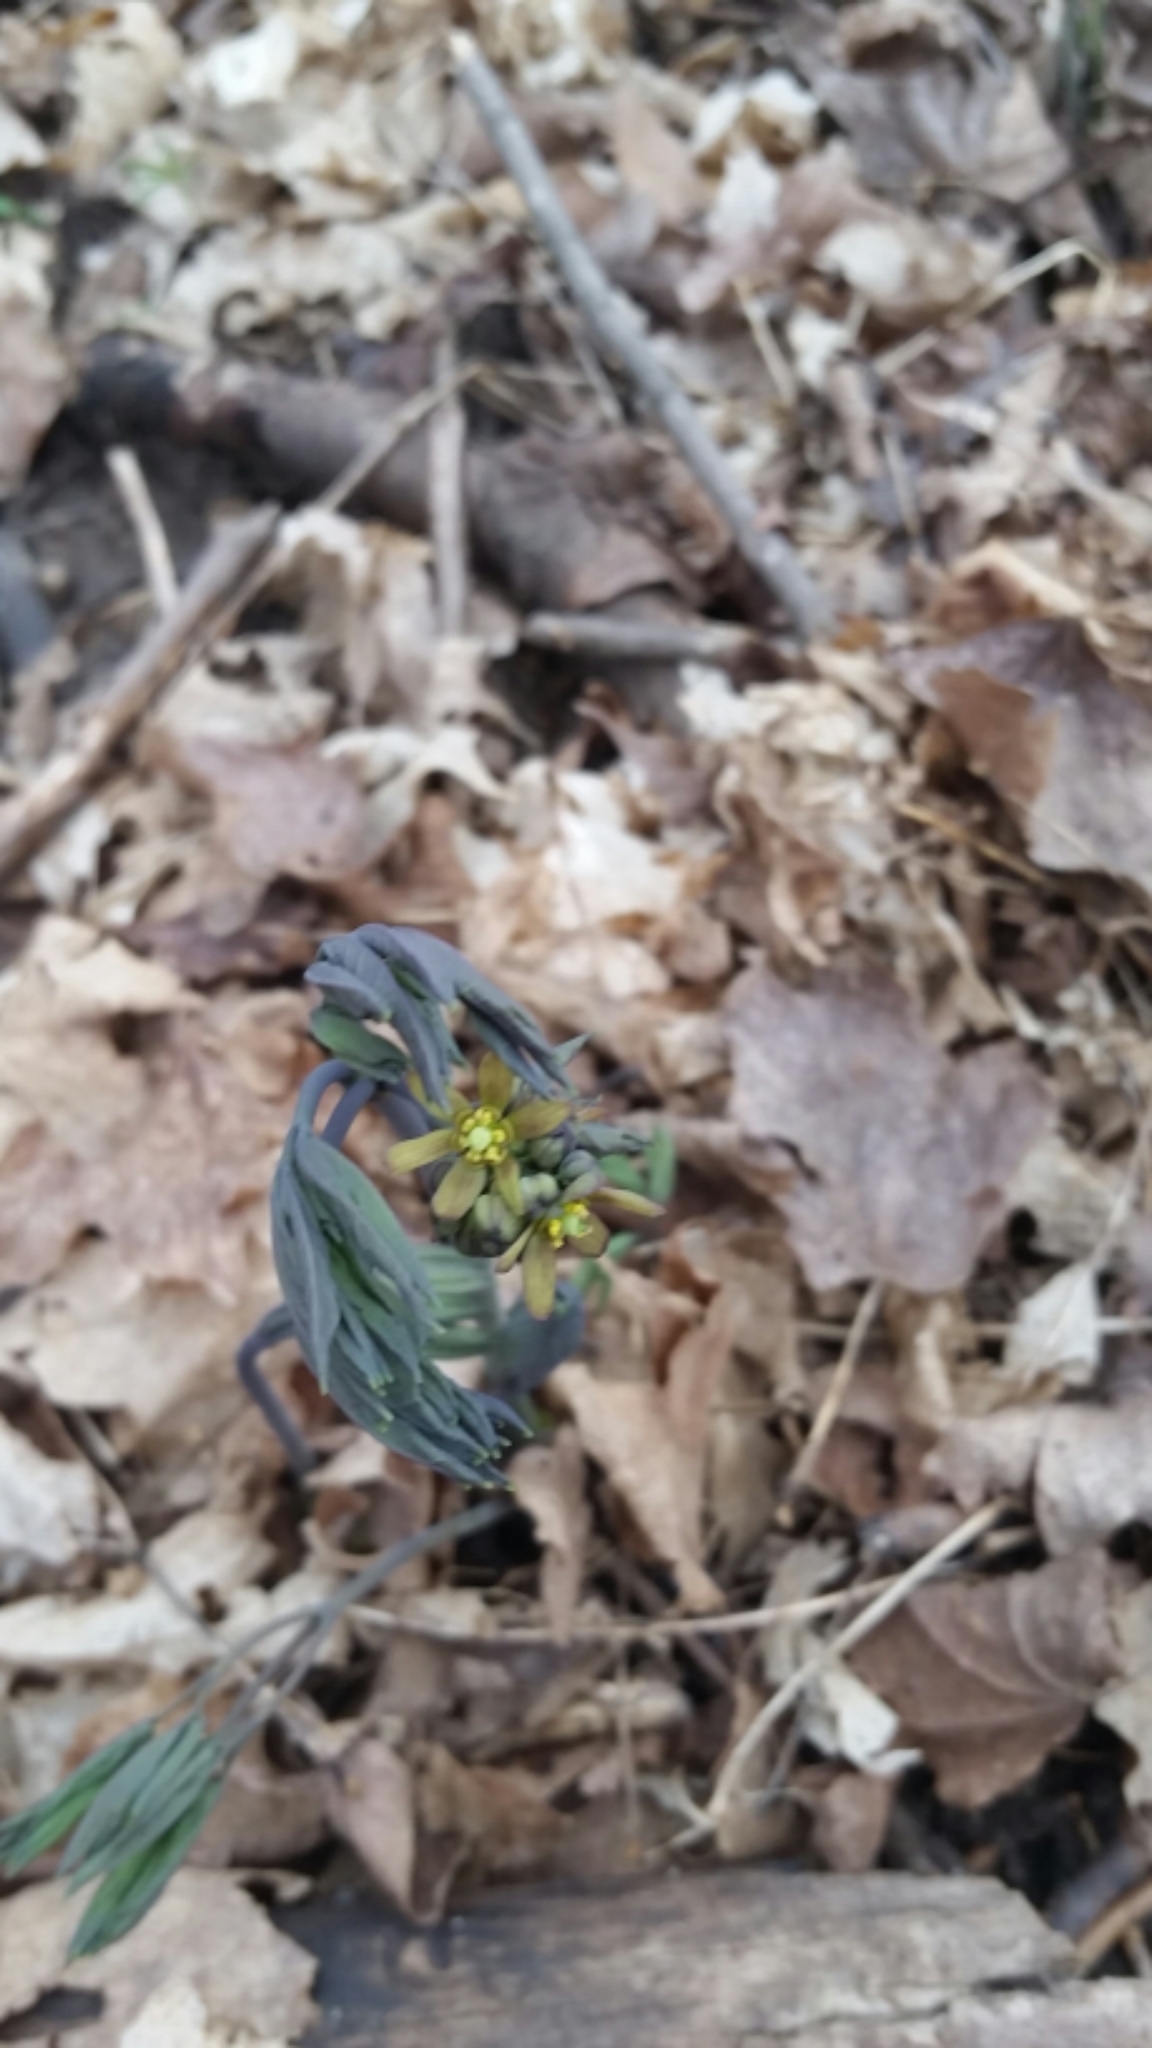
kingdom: Plantae
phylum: Tracheophyta
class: Magnoliopsida
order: Ranunculales
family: Berberidaceae
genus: Caulophyllum
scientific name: Caulophyllum giganteum
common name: Blue cohosh
